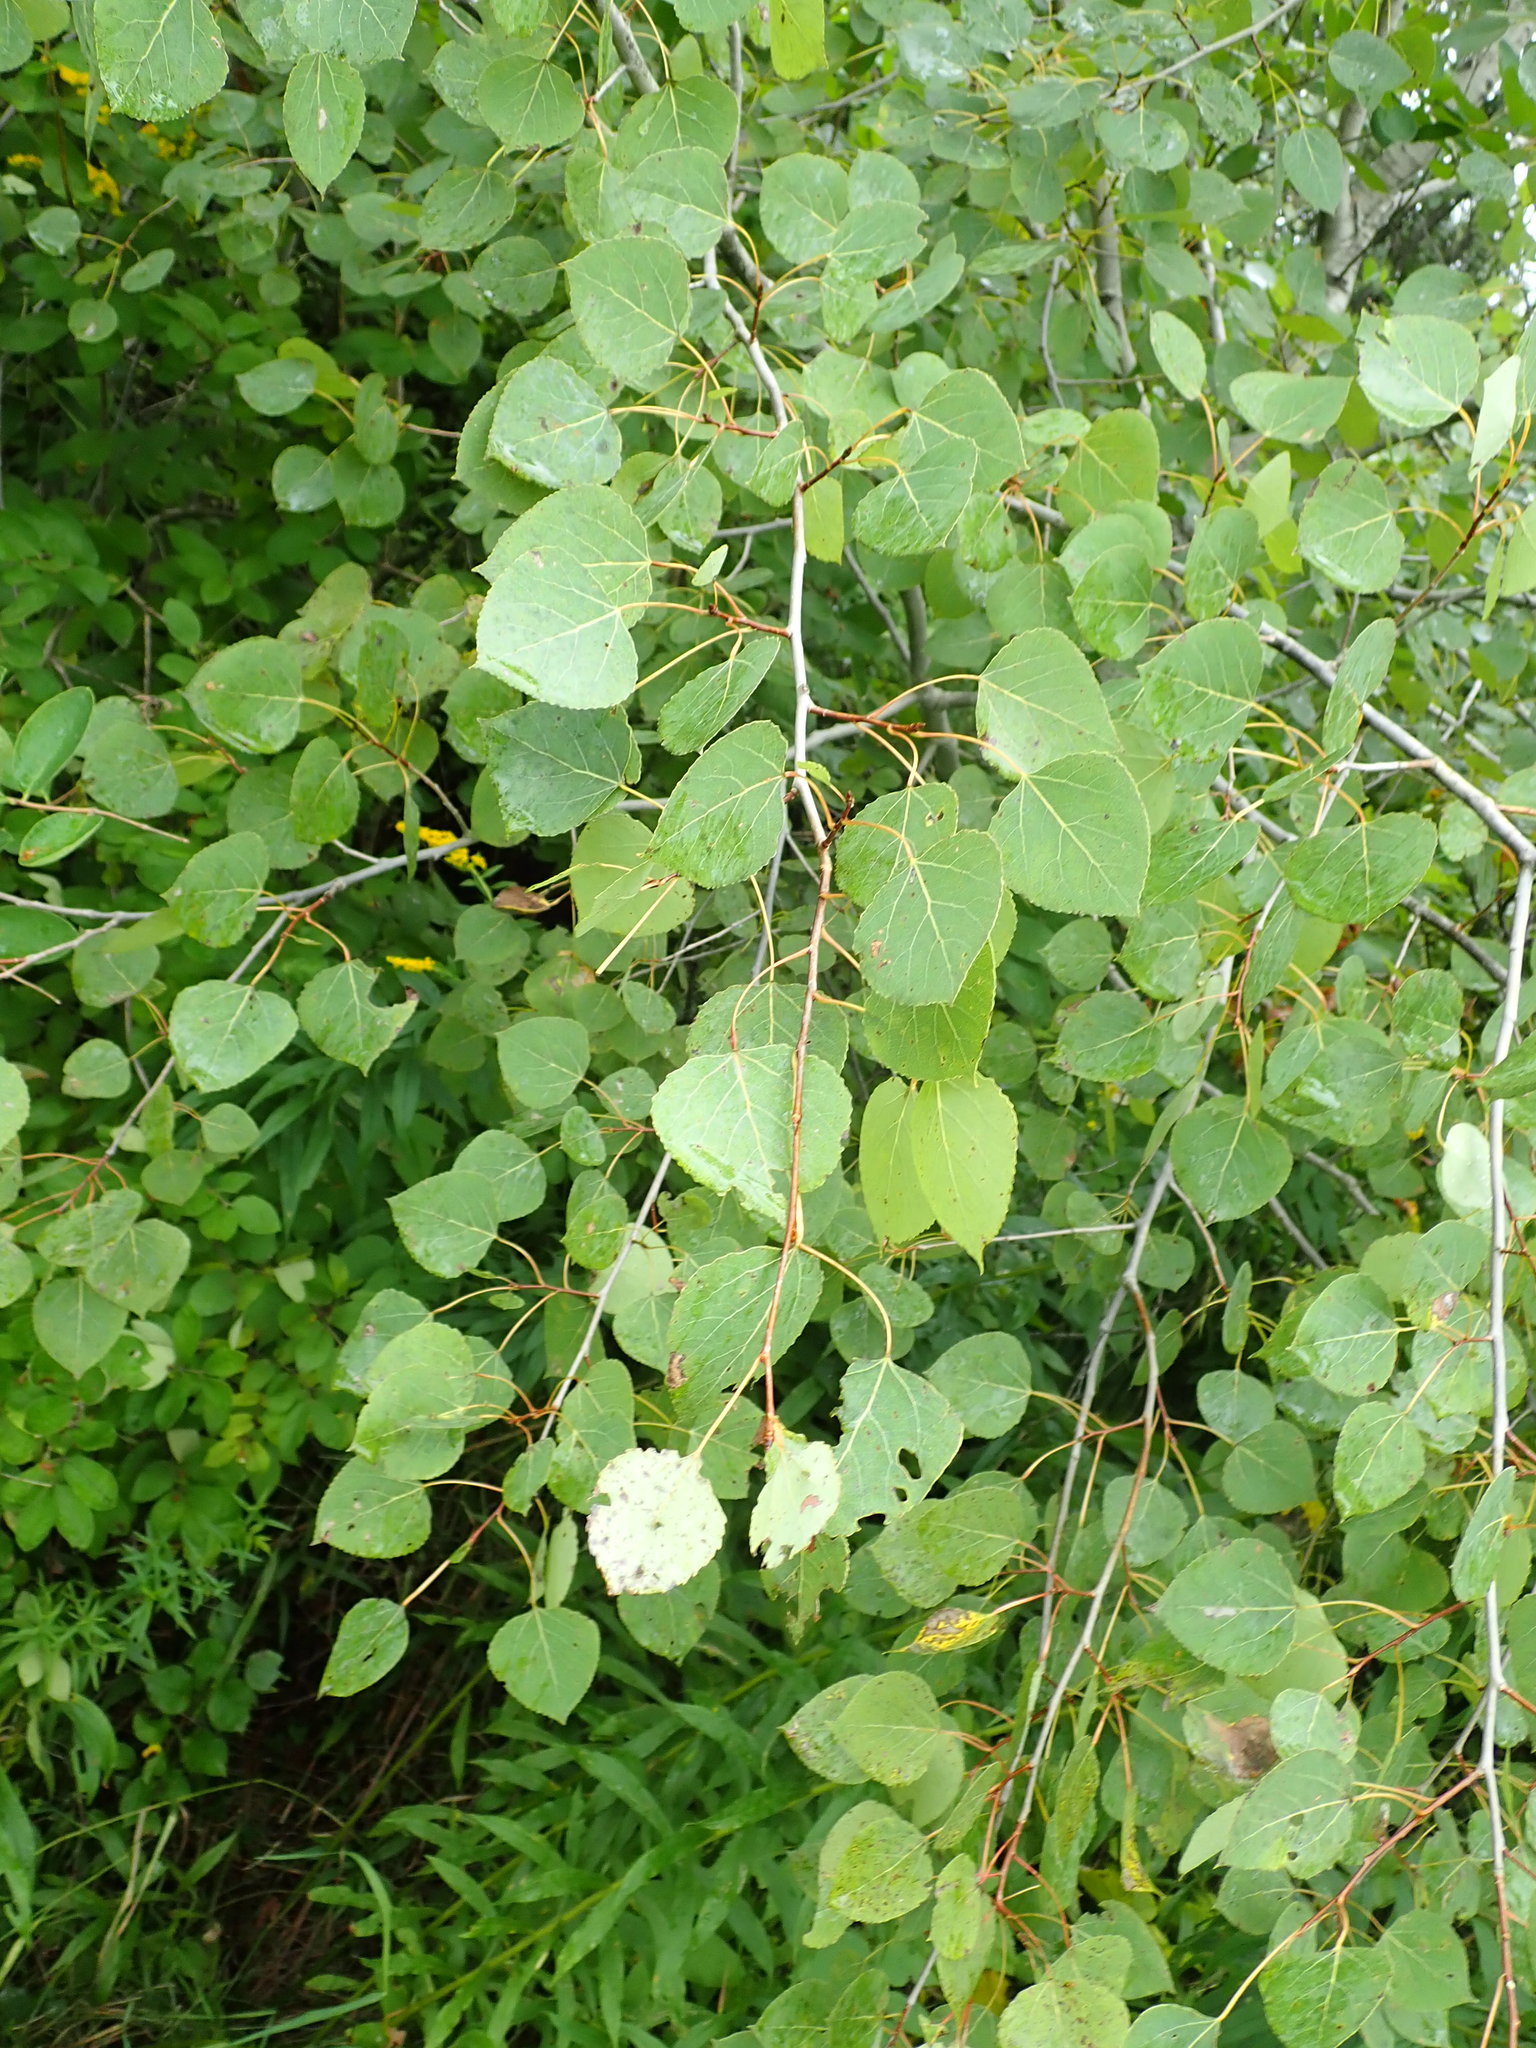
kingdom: Plantae
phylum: Tracheophyta
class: Magnoliopsida
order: Malpighiales
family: Salicaceae
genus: Populus
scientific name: Populus tremuloides
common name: Quaking aspen
